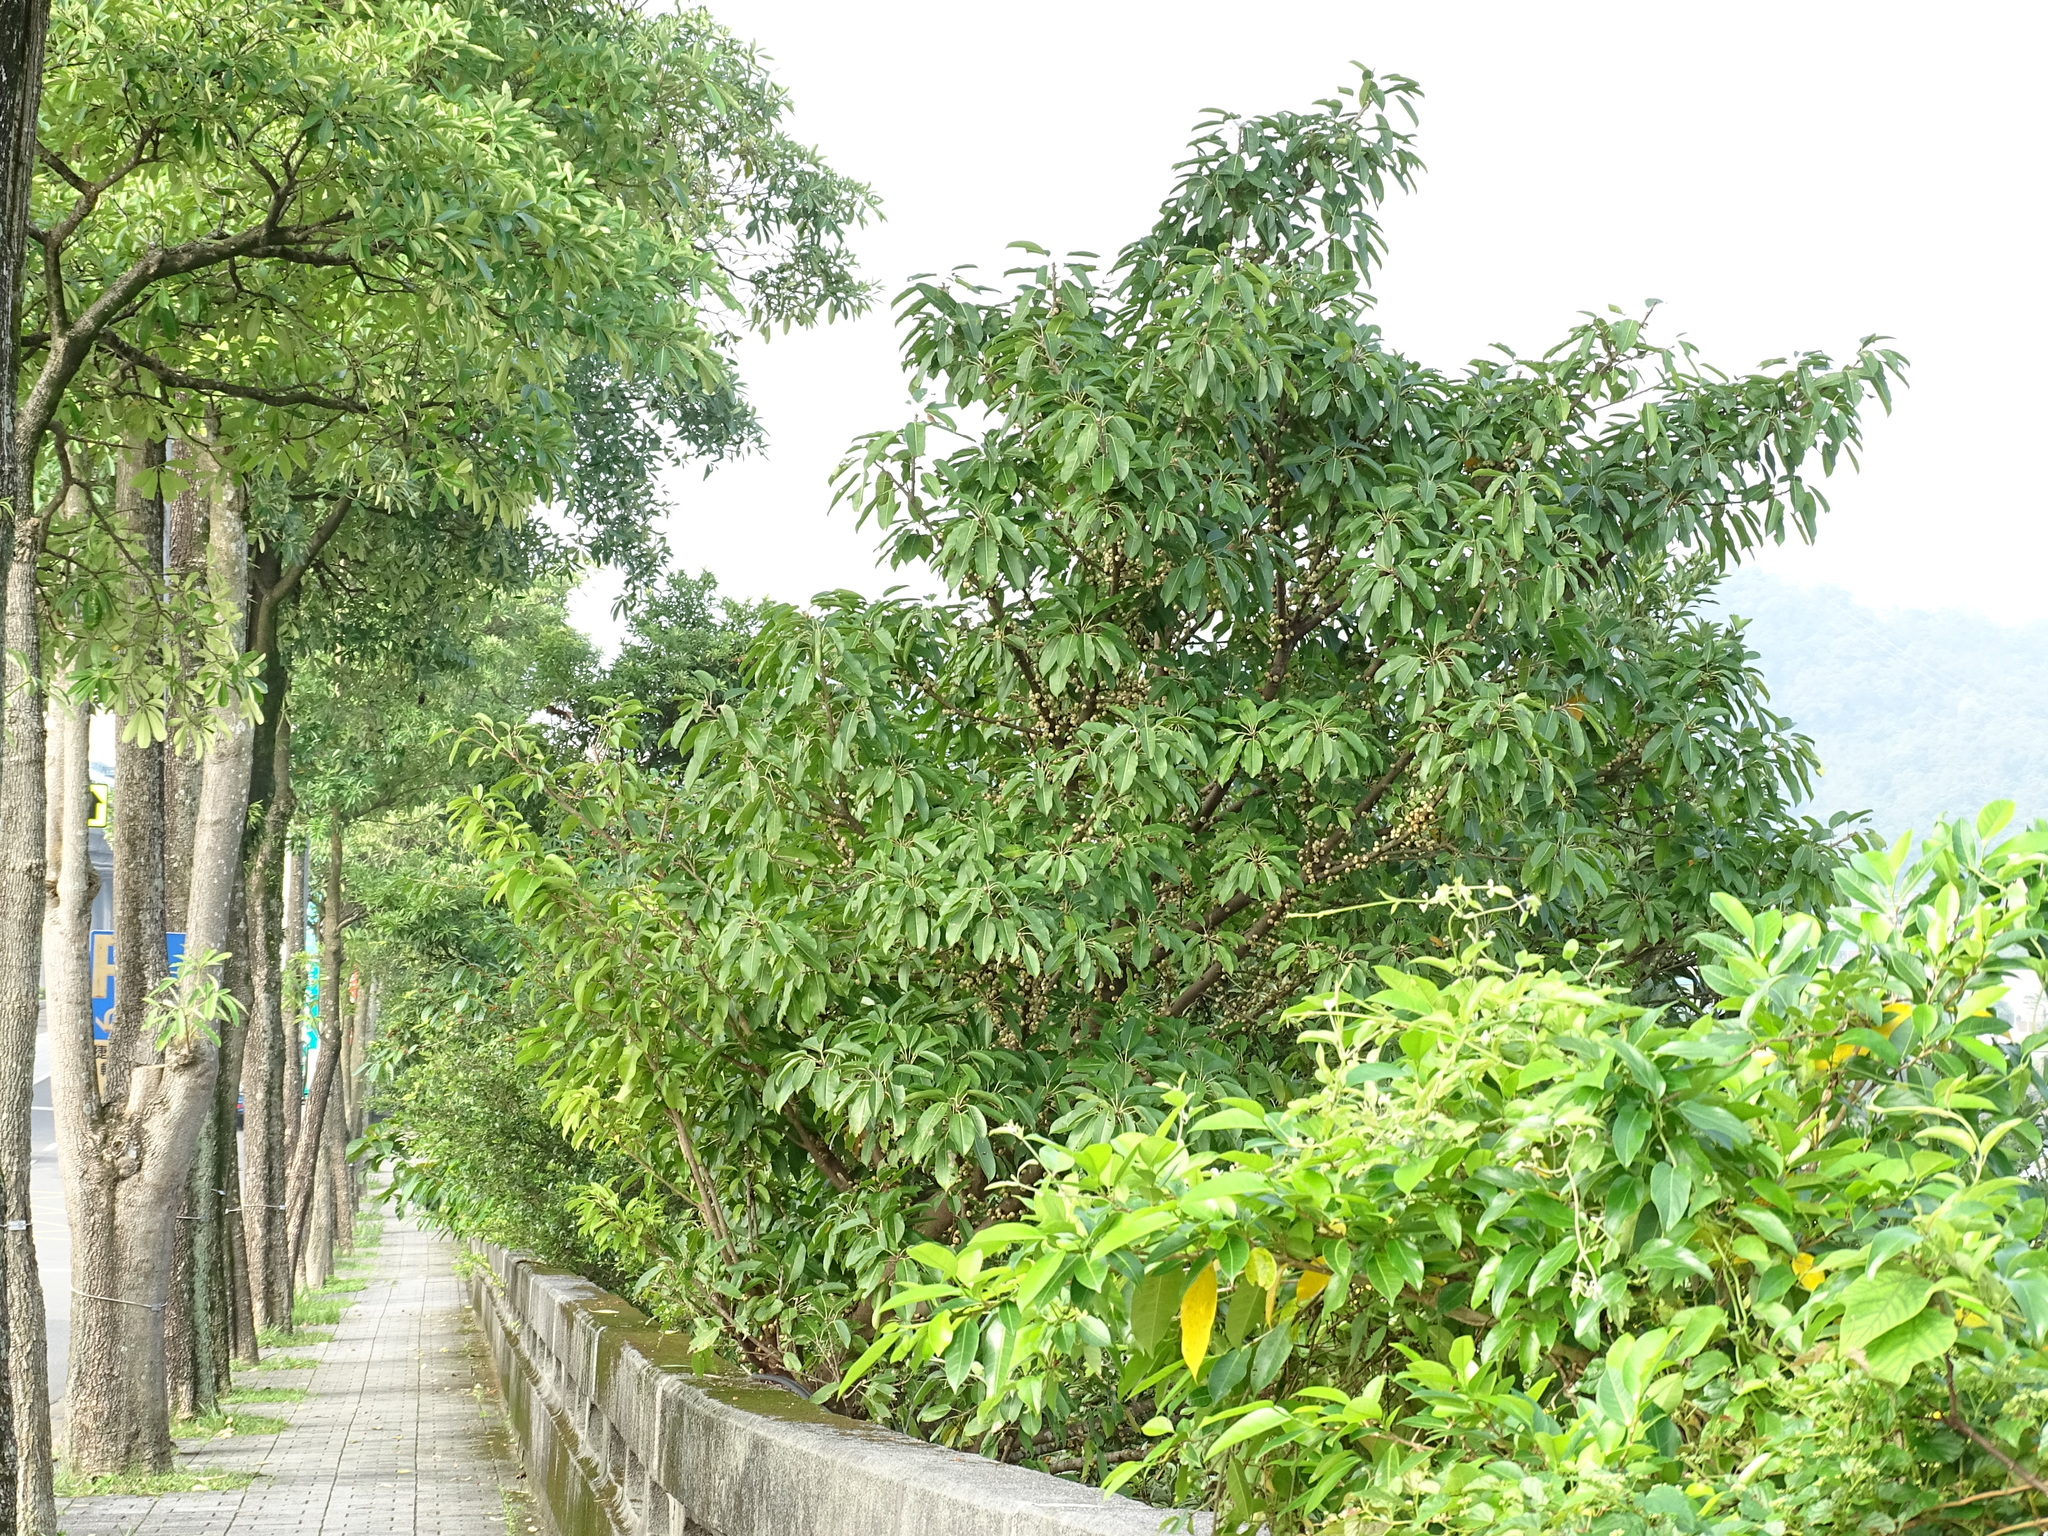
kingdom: Plantae
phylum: Tracheophyta
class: Magnoliopsida
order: Rosales
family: Moraceae
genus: Ficus
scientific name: Ficus subpisocarpa
